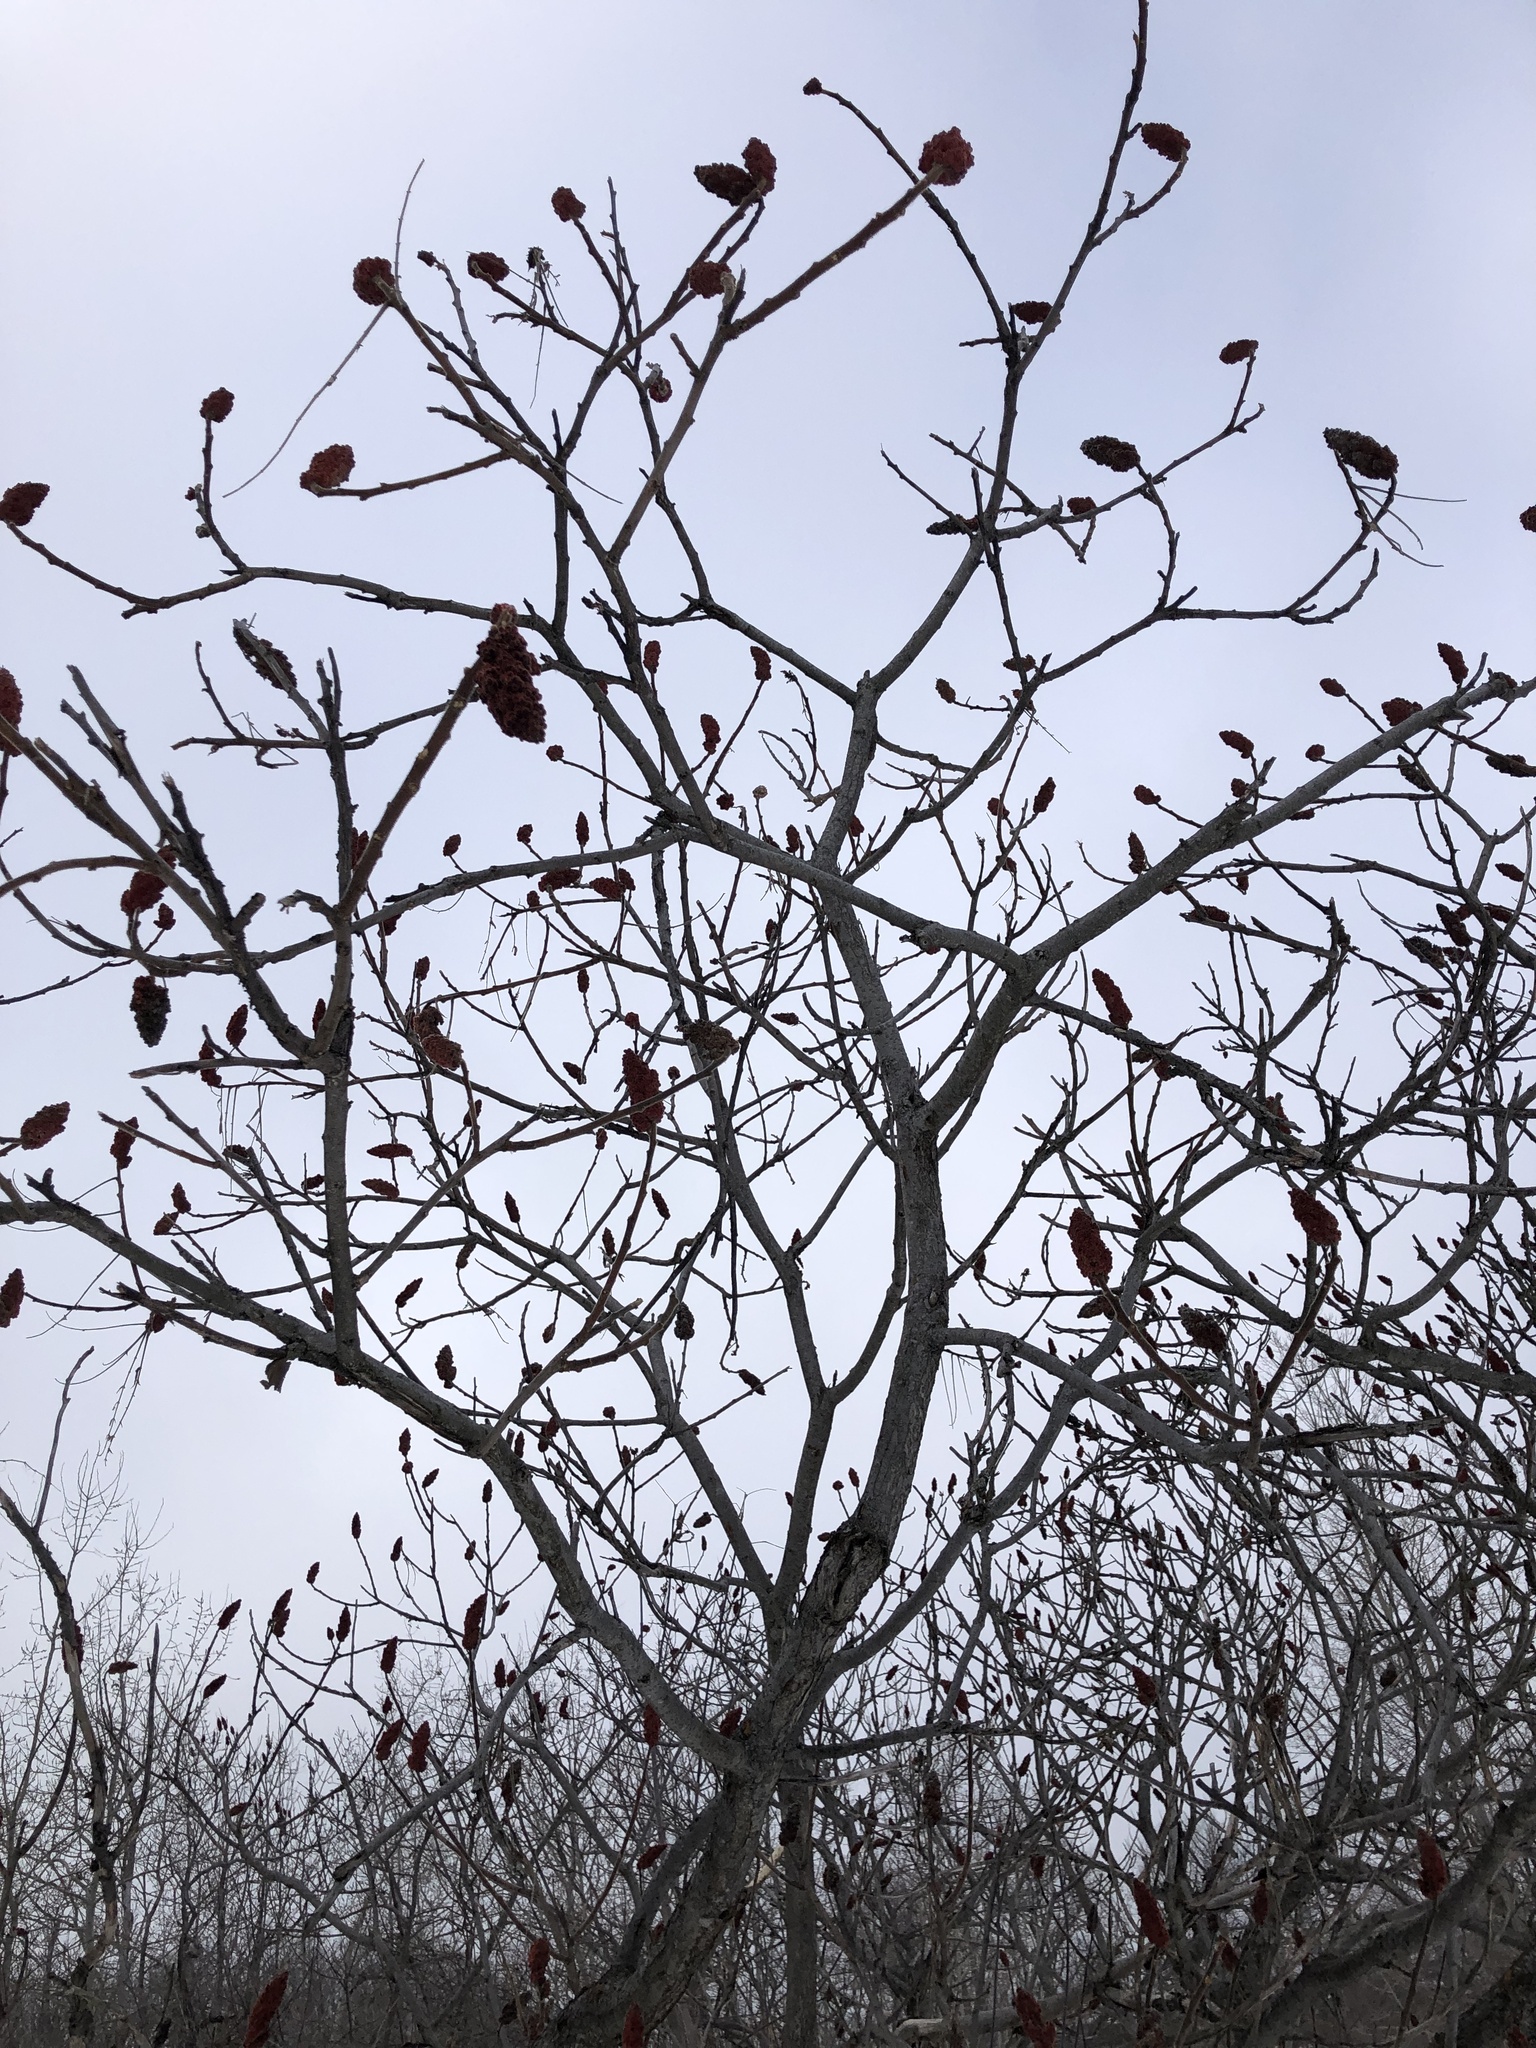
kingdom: Plantae
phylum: Tracheophyta
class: Magnoliopsida
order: Sapindales
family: Anacardiaceae
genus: Rhus
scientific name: Rhus typhina
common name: Staghorn sumac
